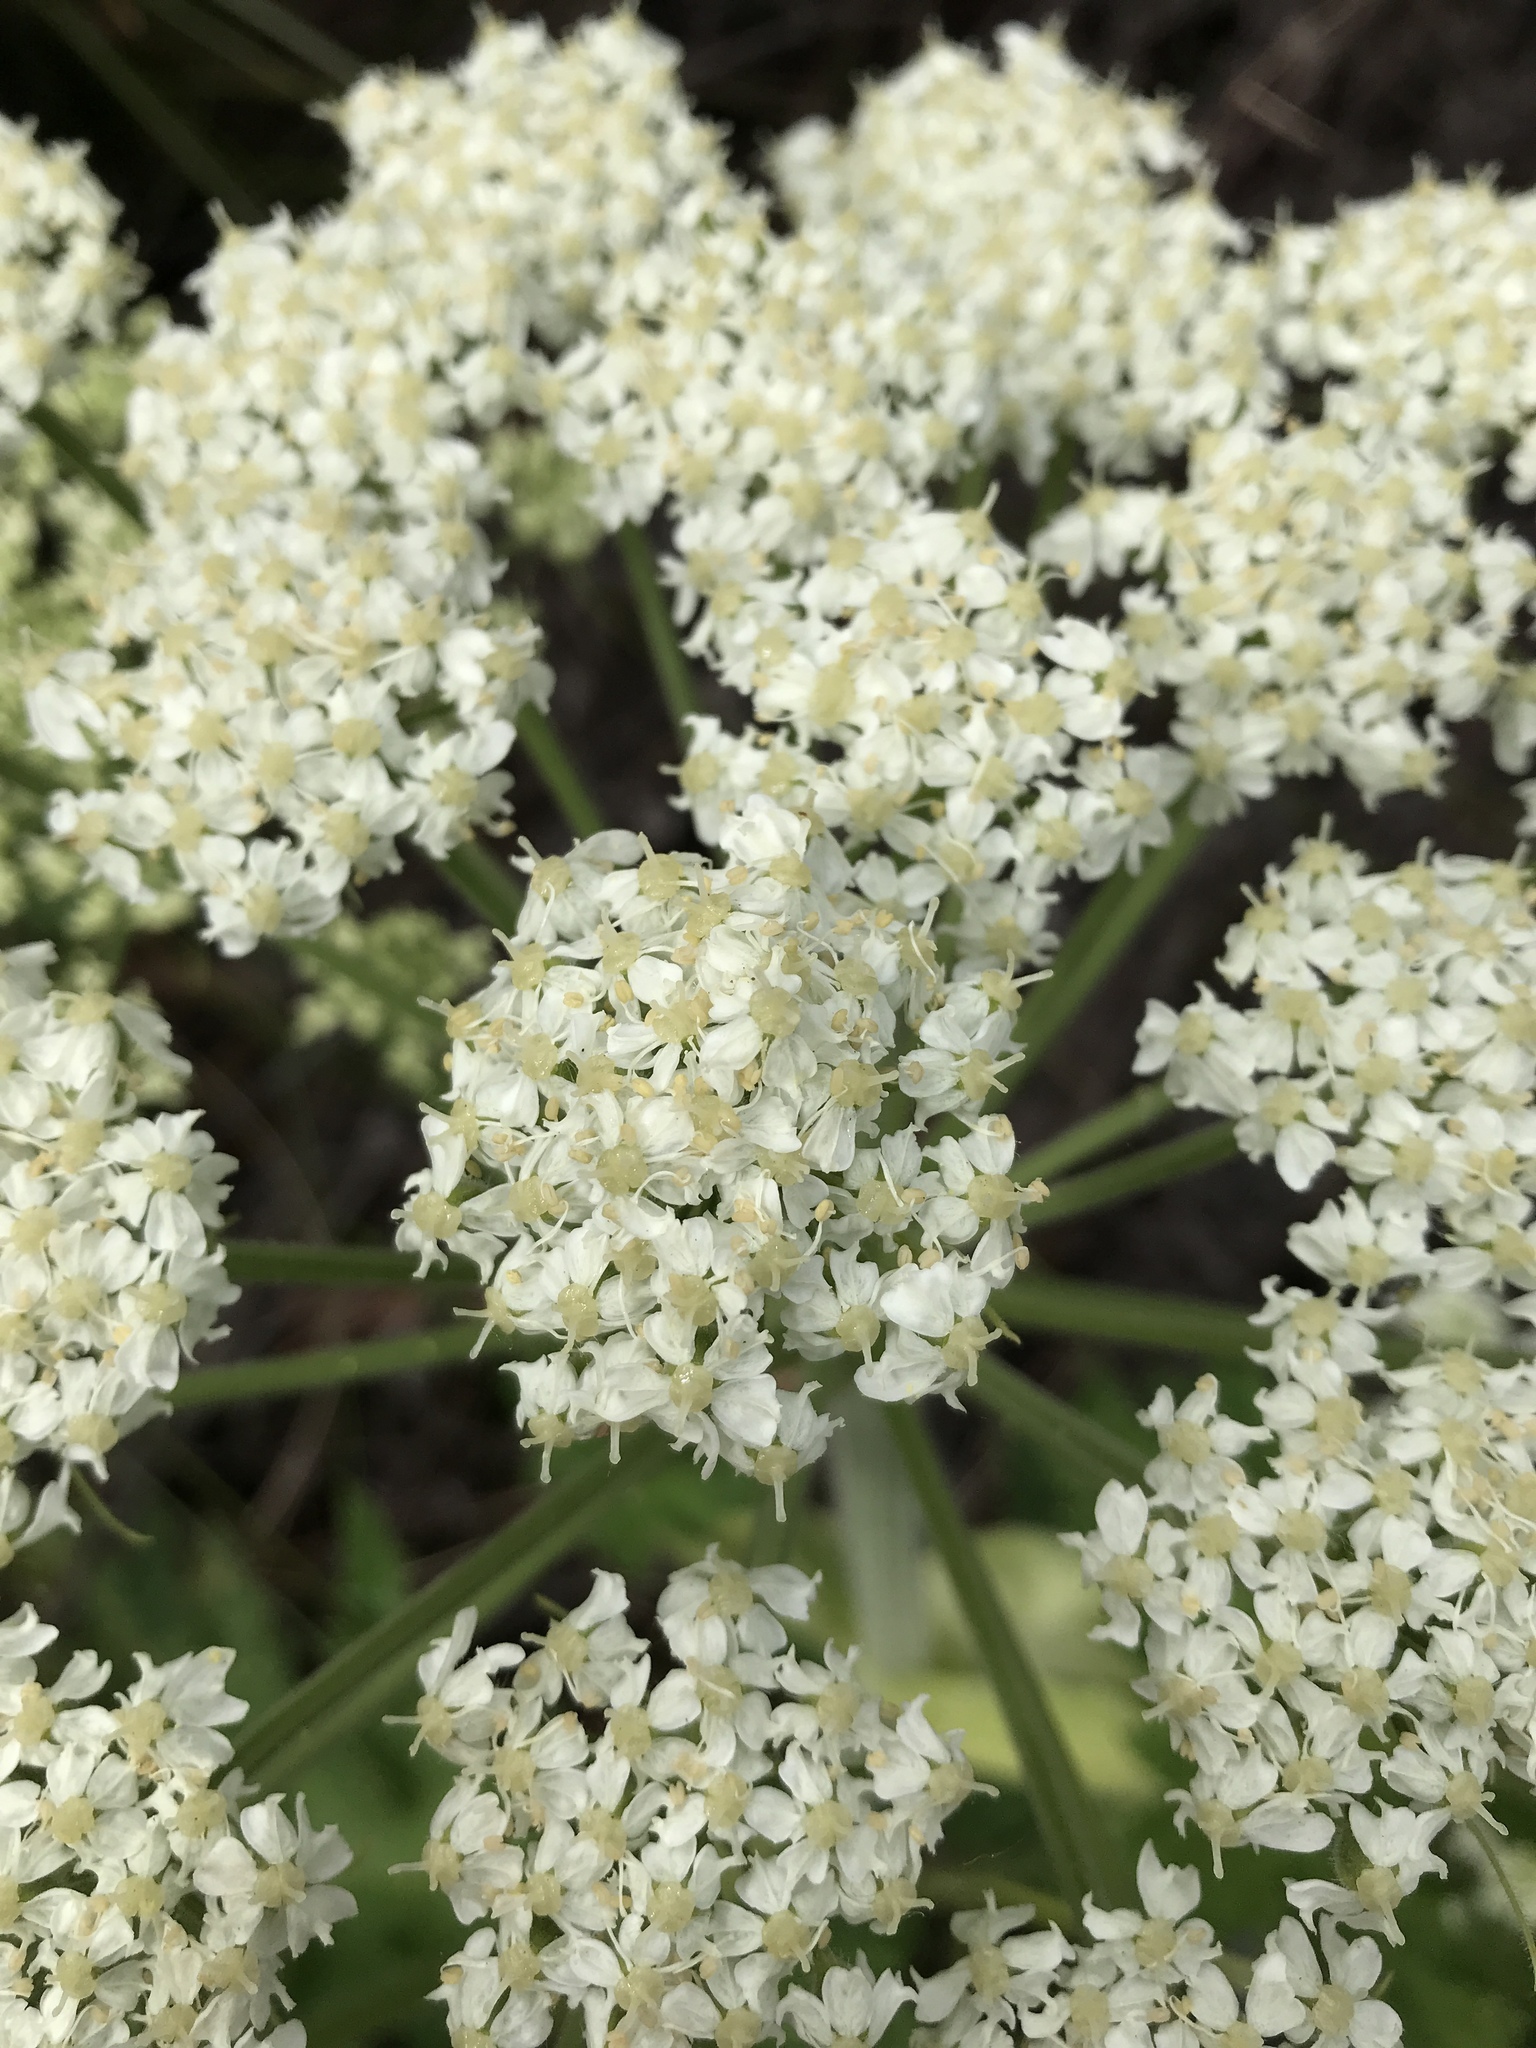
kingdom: Plantae
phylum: Tracheophyta
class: Magnoliopsida
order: Apiales
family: Apiaceae
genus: Heracleum
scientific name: Heracleum maximum
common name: American cow parsnip
